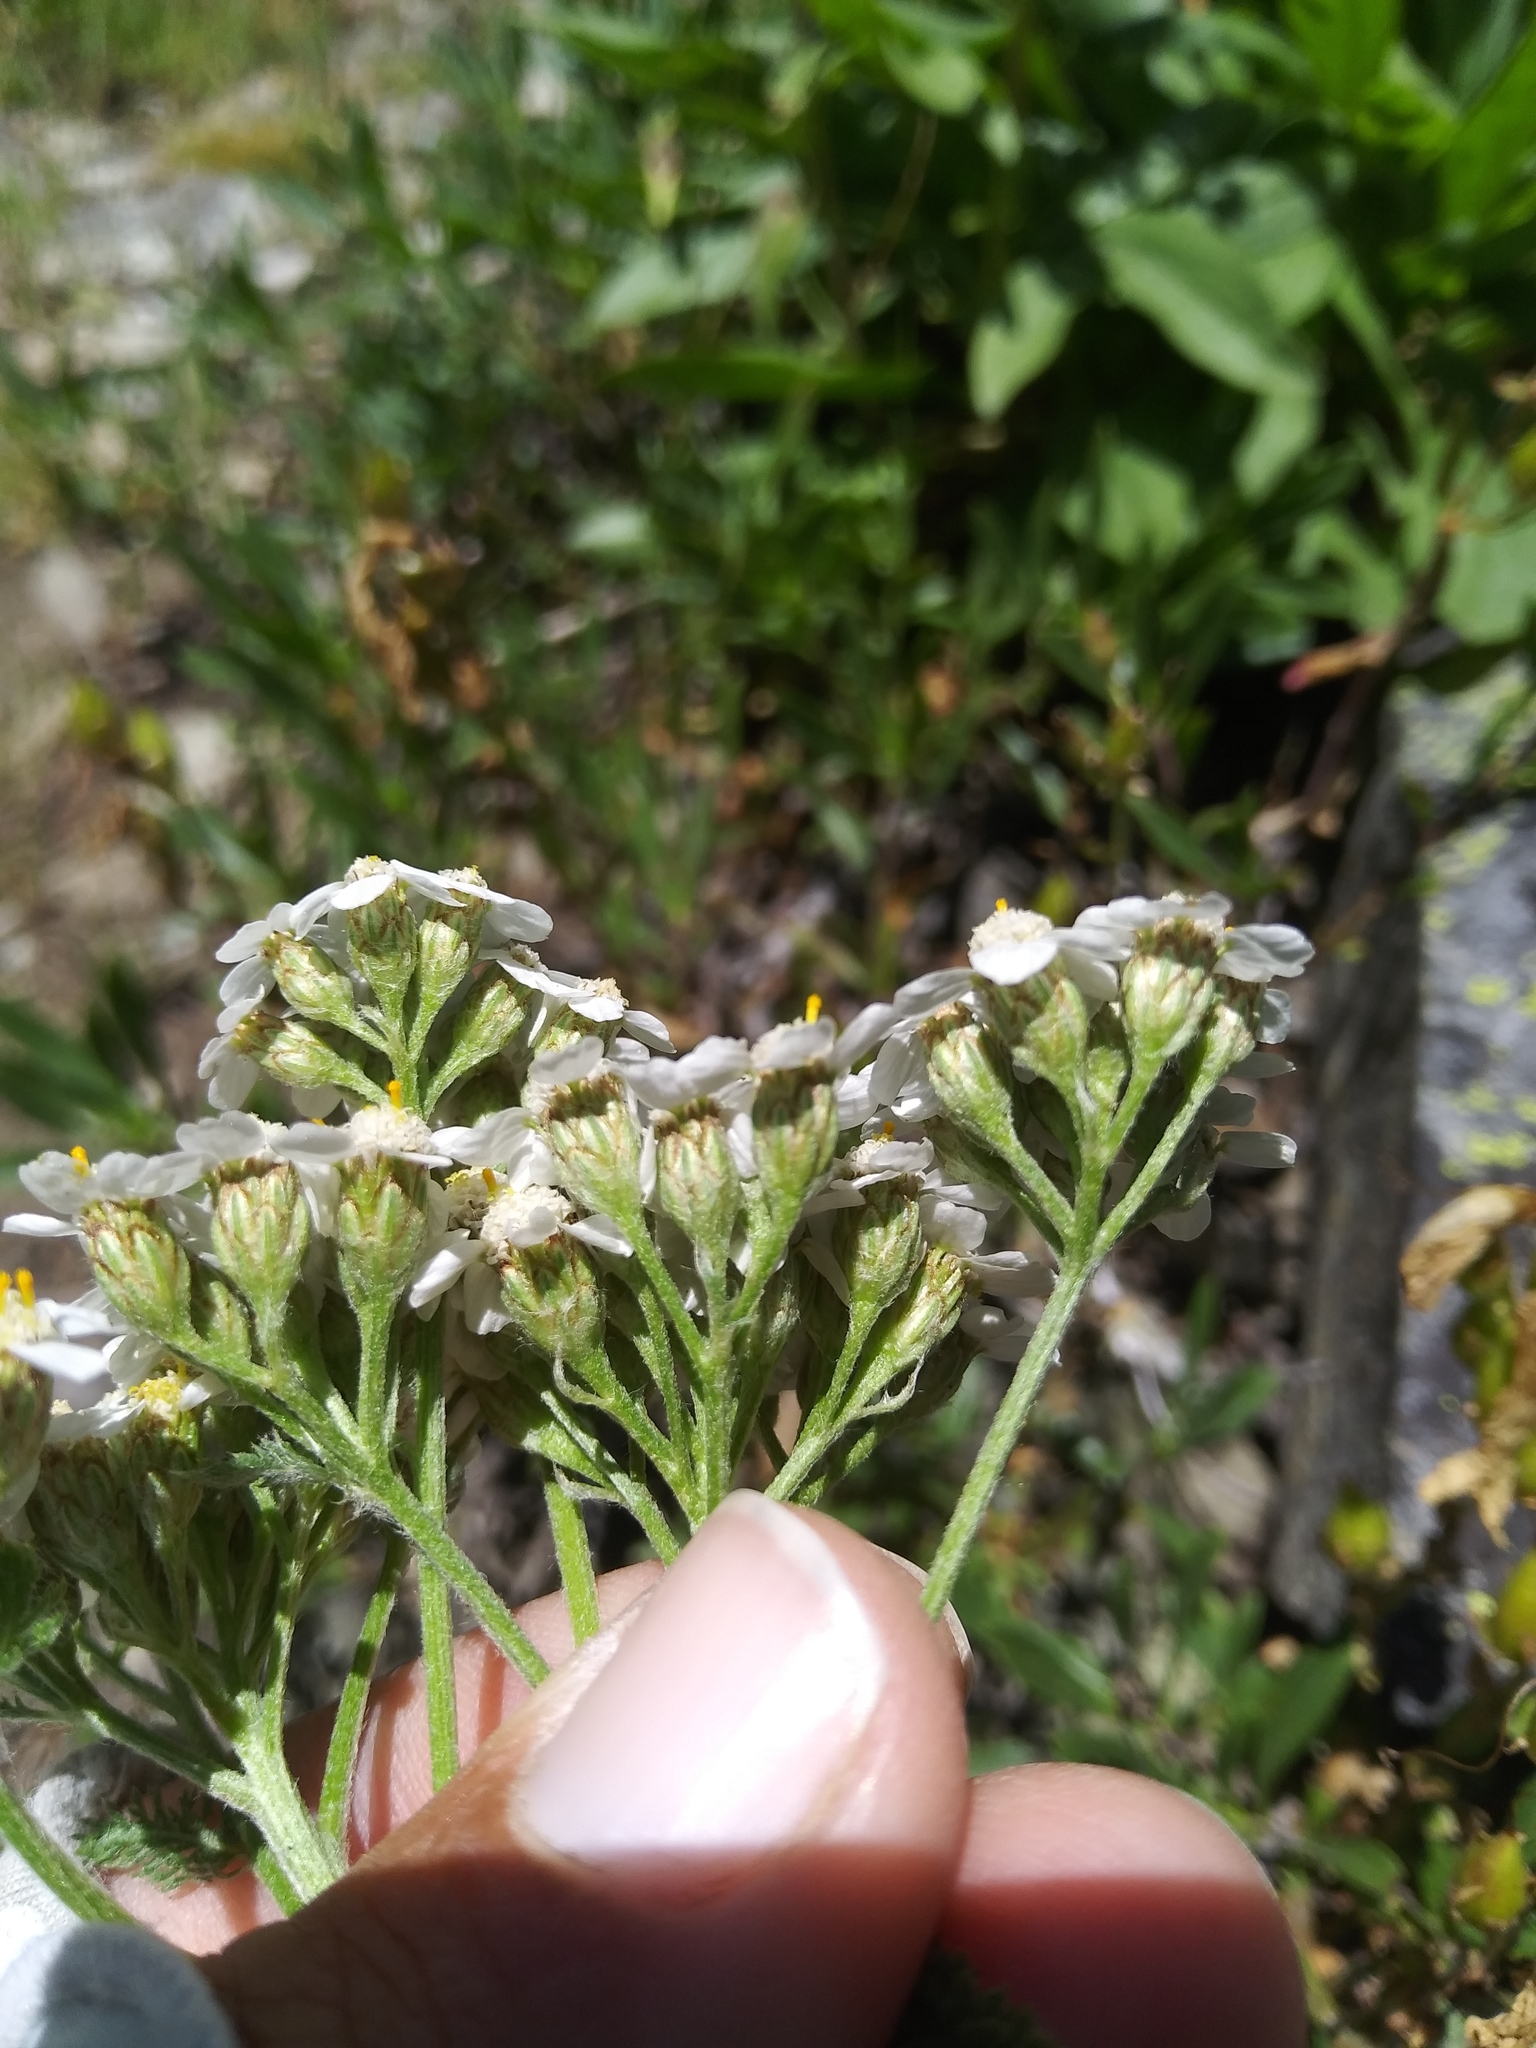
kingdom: Plantae
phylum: Tracheophyta
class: Magnoliopsida
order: Asterales
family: Asteraceae
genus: Achillea
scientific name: Achillea millefolium
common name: Yarrow
